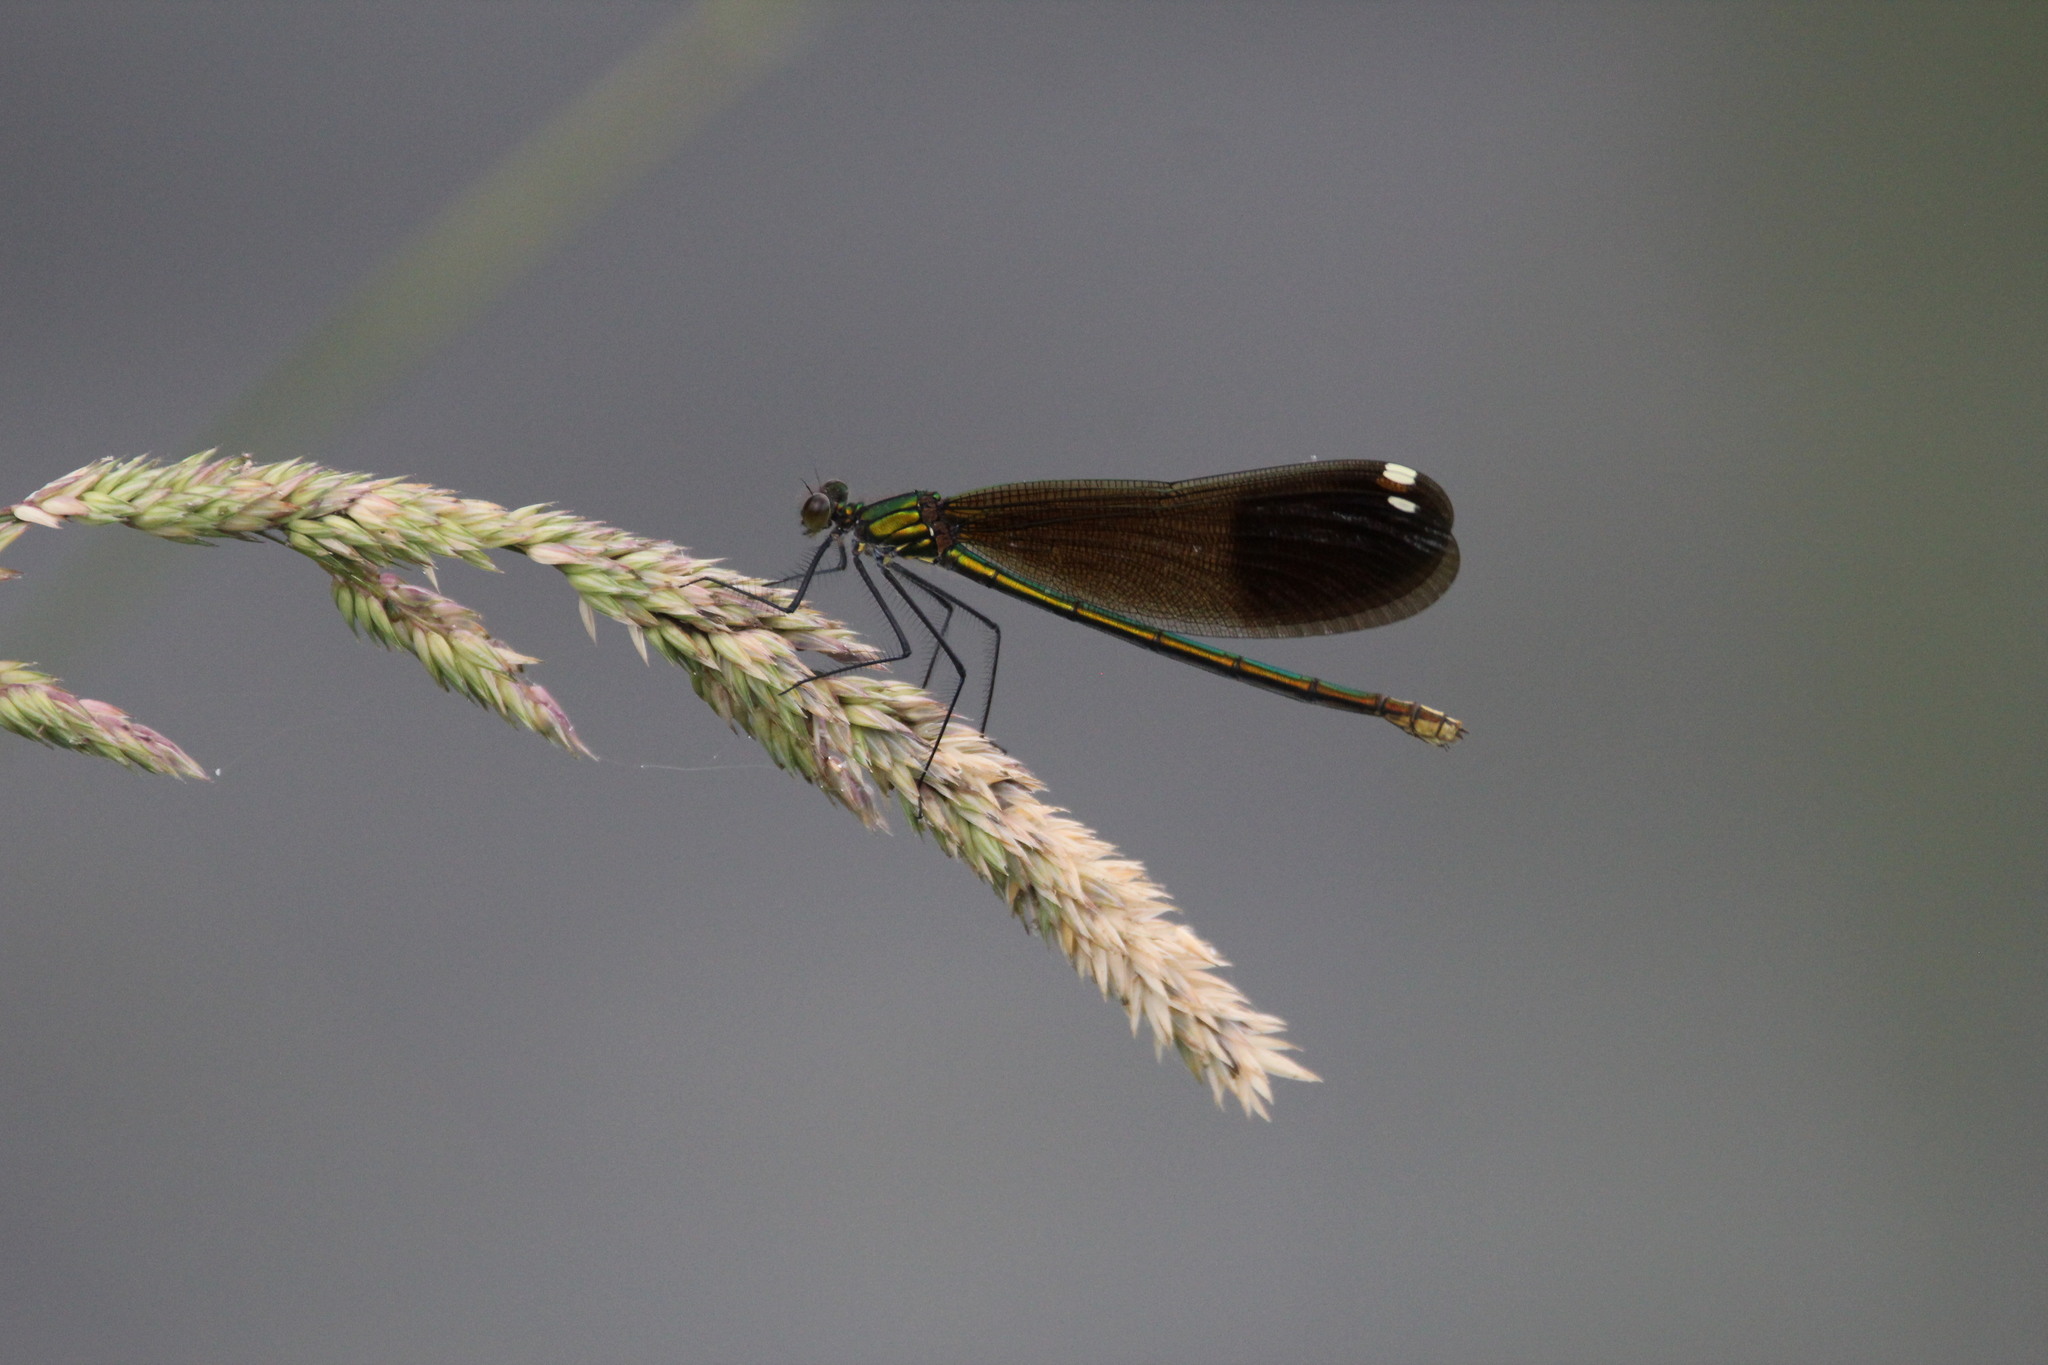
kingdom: Animalia
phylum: Arthropoda
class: Insecta
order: Odonata
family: Calopterygidae
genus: Calopteryx
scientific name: Calopteryx aequabilis
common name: River jewelwing
